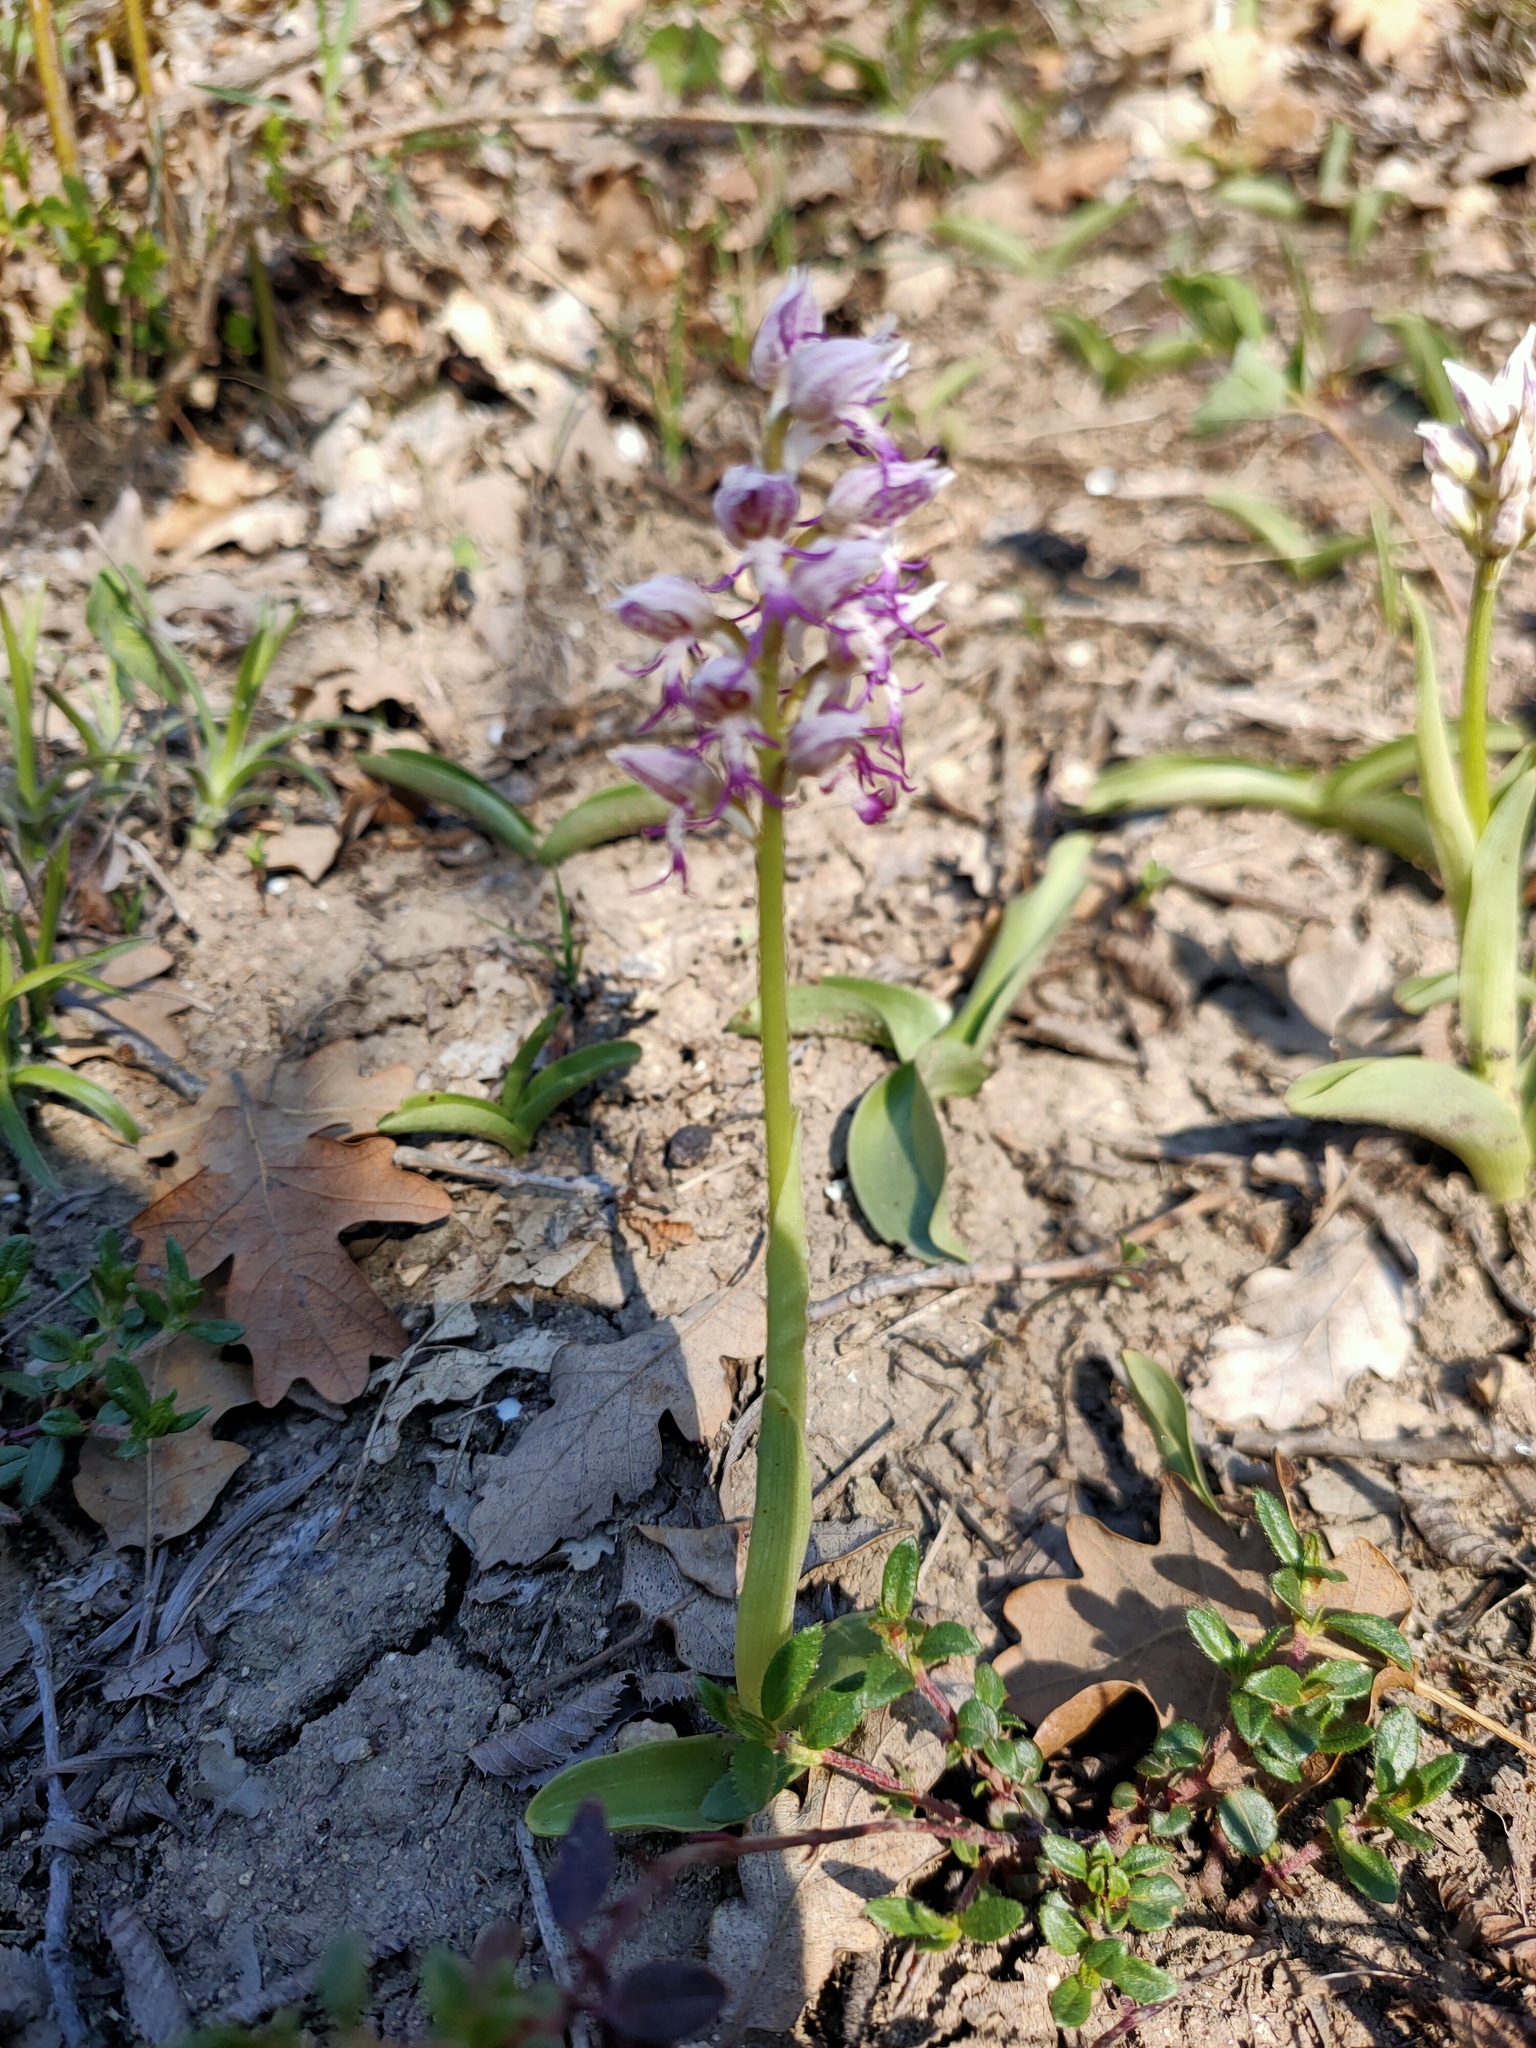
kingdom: Plantae
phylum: Tracheophyta
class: Liliopsida
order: Asparagales
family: Orchidaceae
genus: Orchis
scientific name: Orchis simia
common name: Monkey orchid
